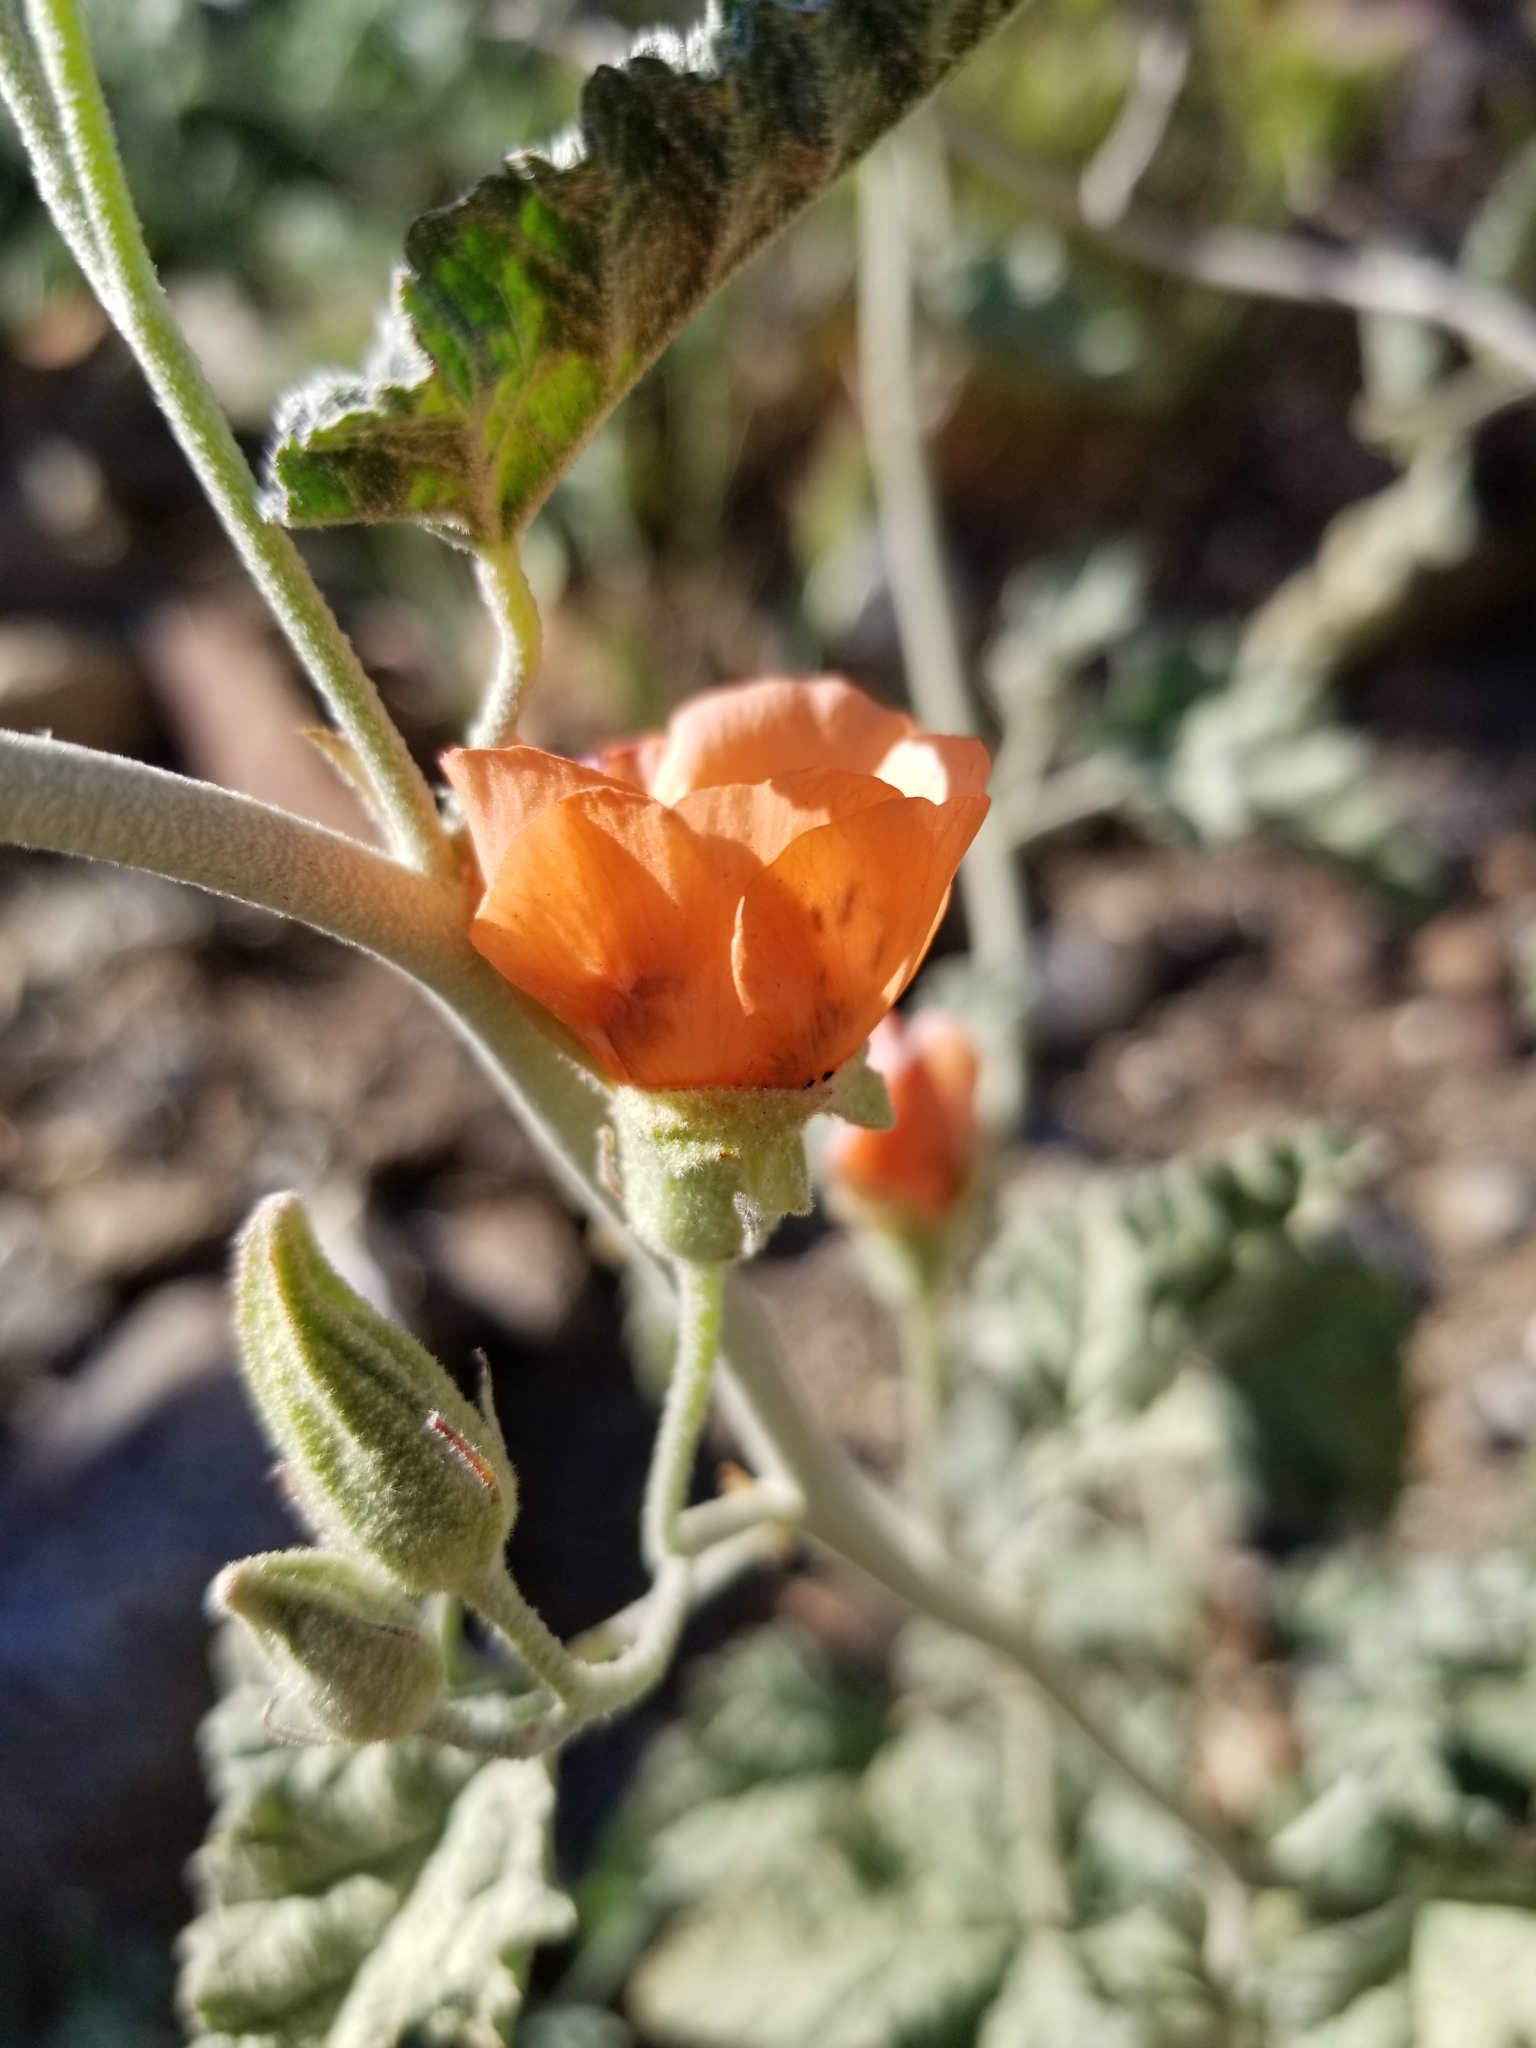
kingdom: Plantae
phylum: Tracheophyta
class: Magnoliopsida
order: Malvales
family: Malvaceae
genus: Sphaeralcea
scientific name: Sphaeralcea ambigua
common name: Apricot globe-mallow
